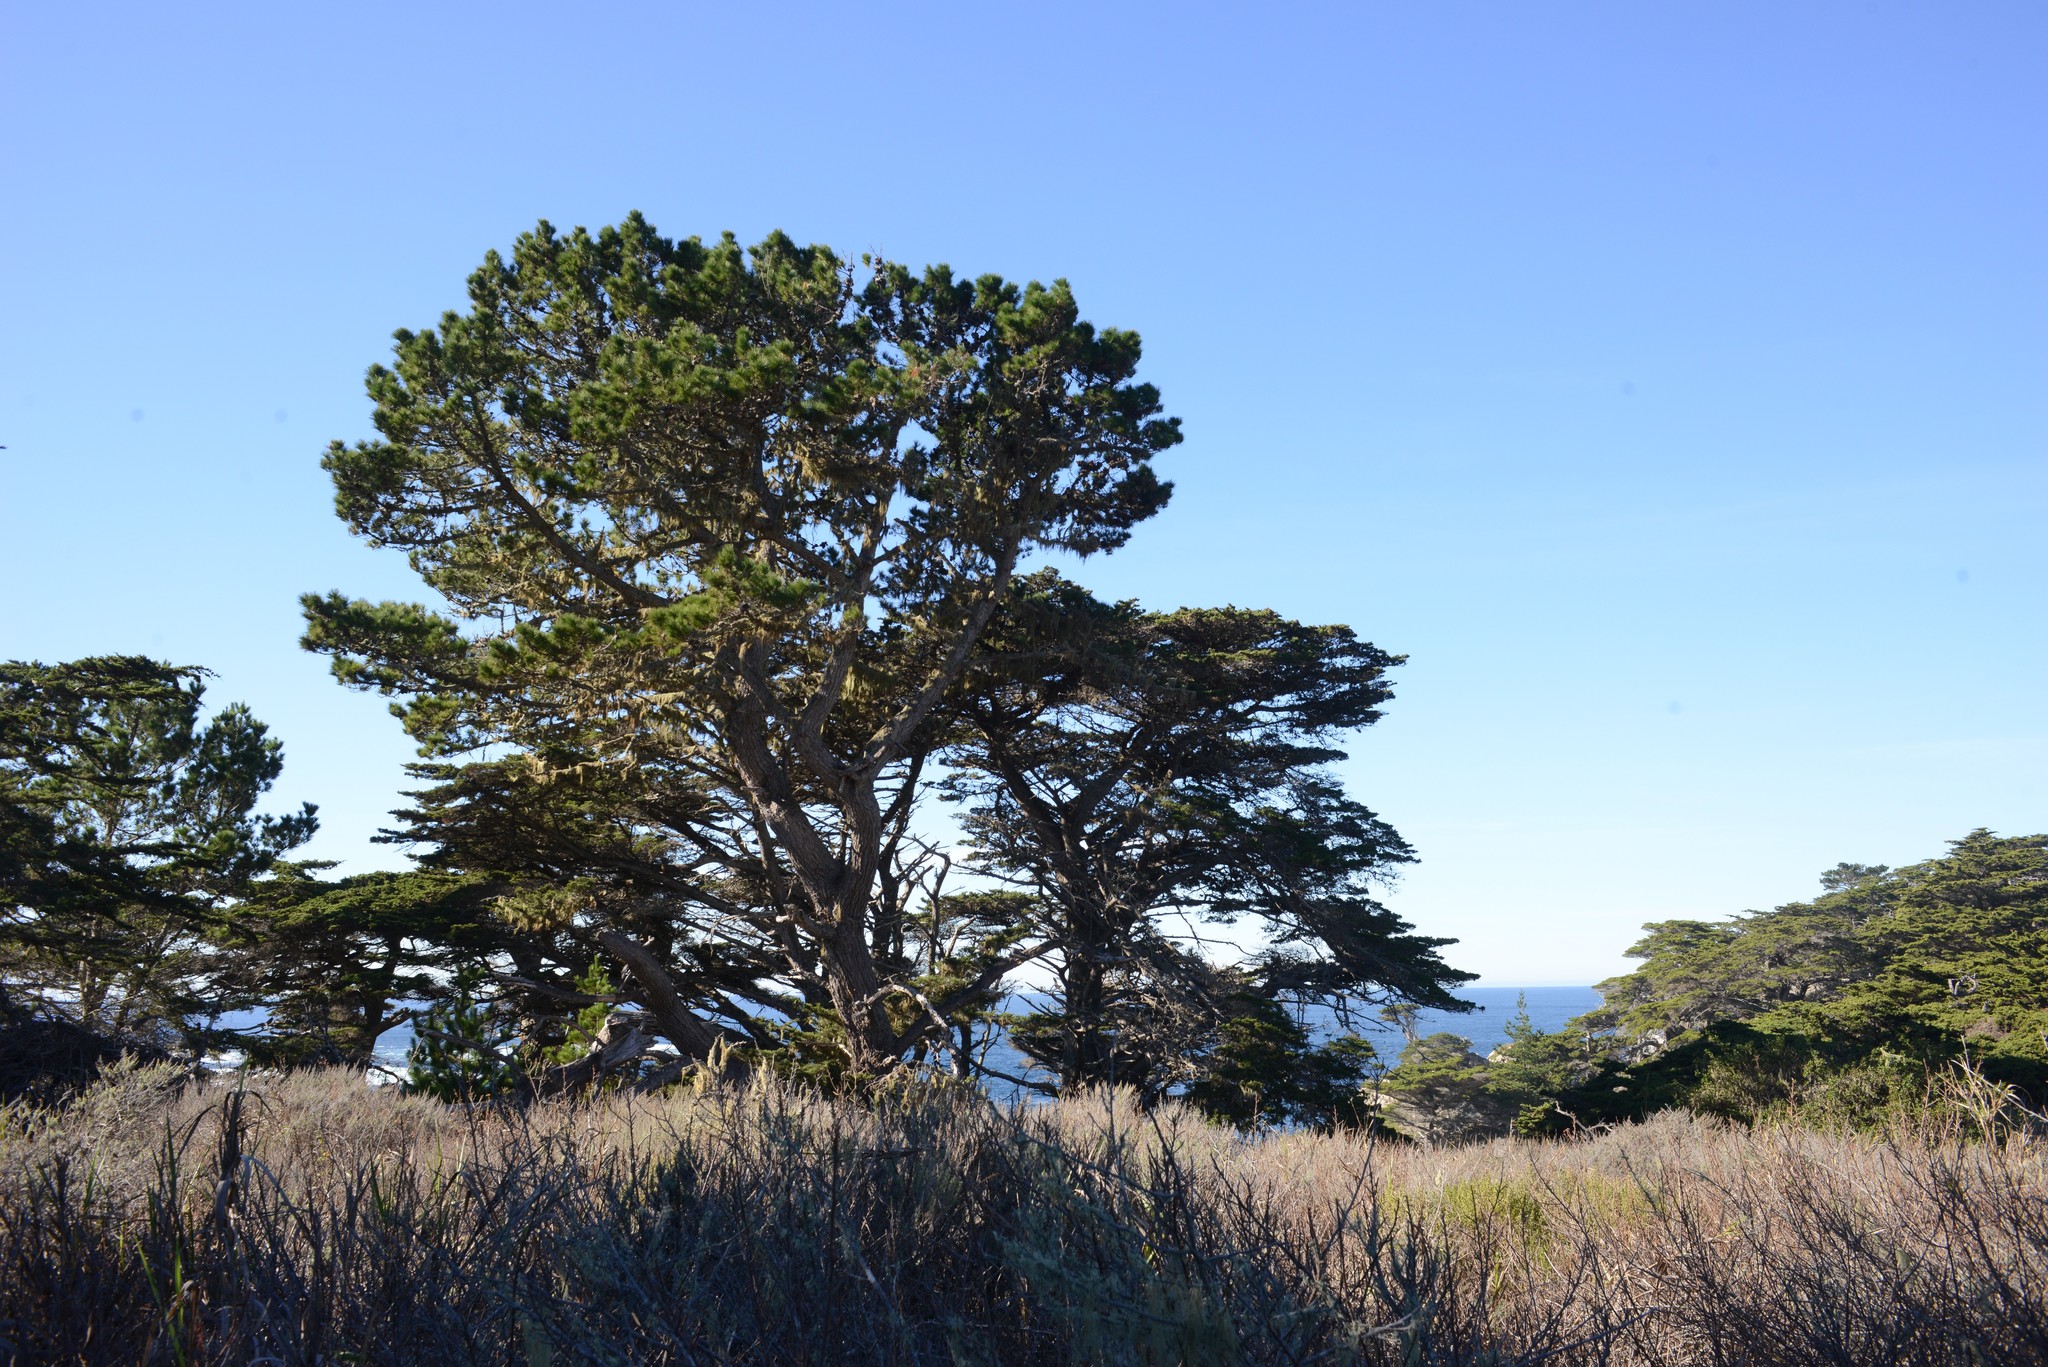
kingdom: Plantae
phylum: Tracheophyta
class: Pinopsida
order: Pinales
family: Pinaceae
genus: Pinus
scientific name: Pinus radiata
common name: Monterey pine
